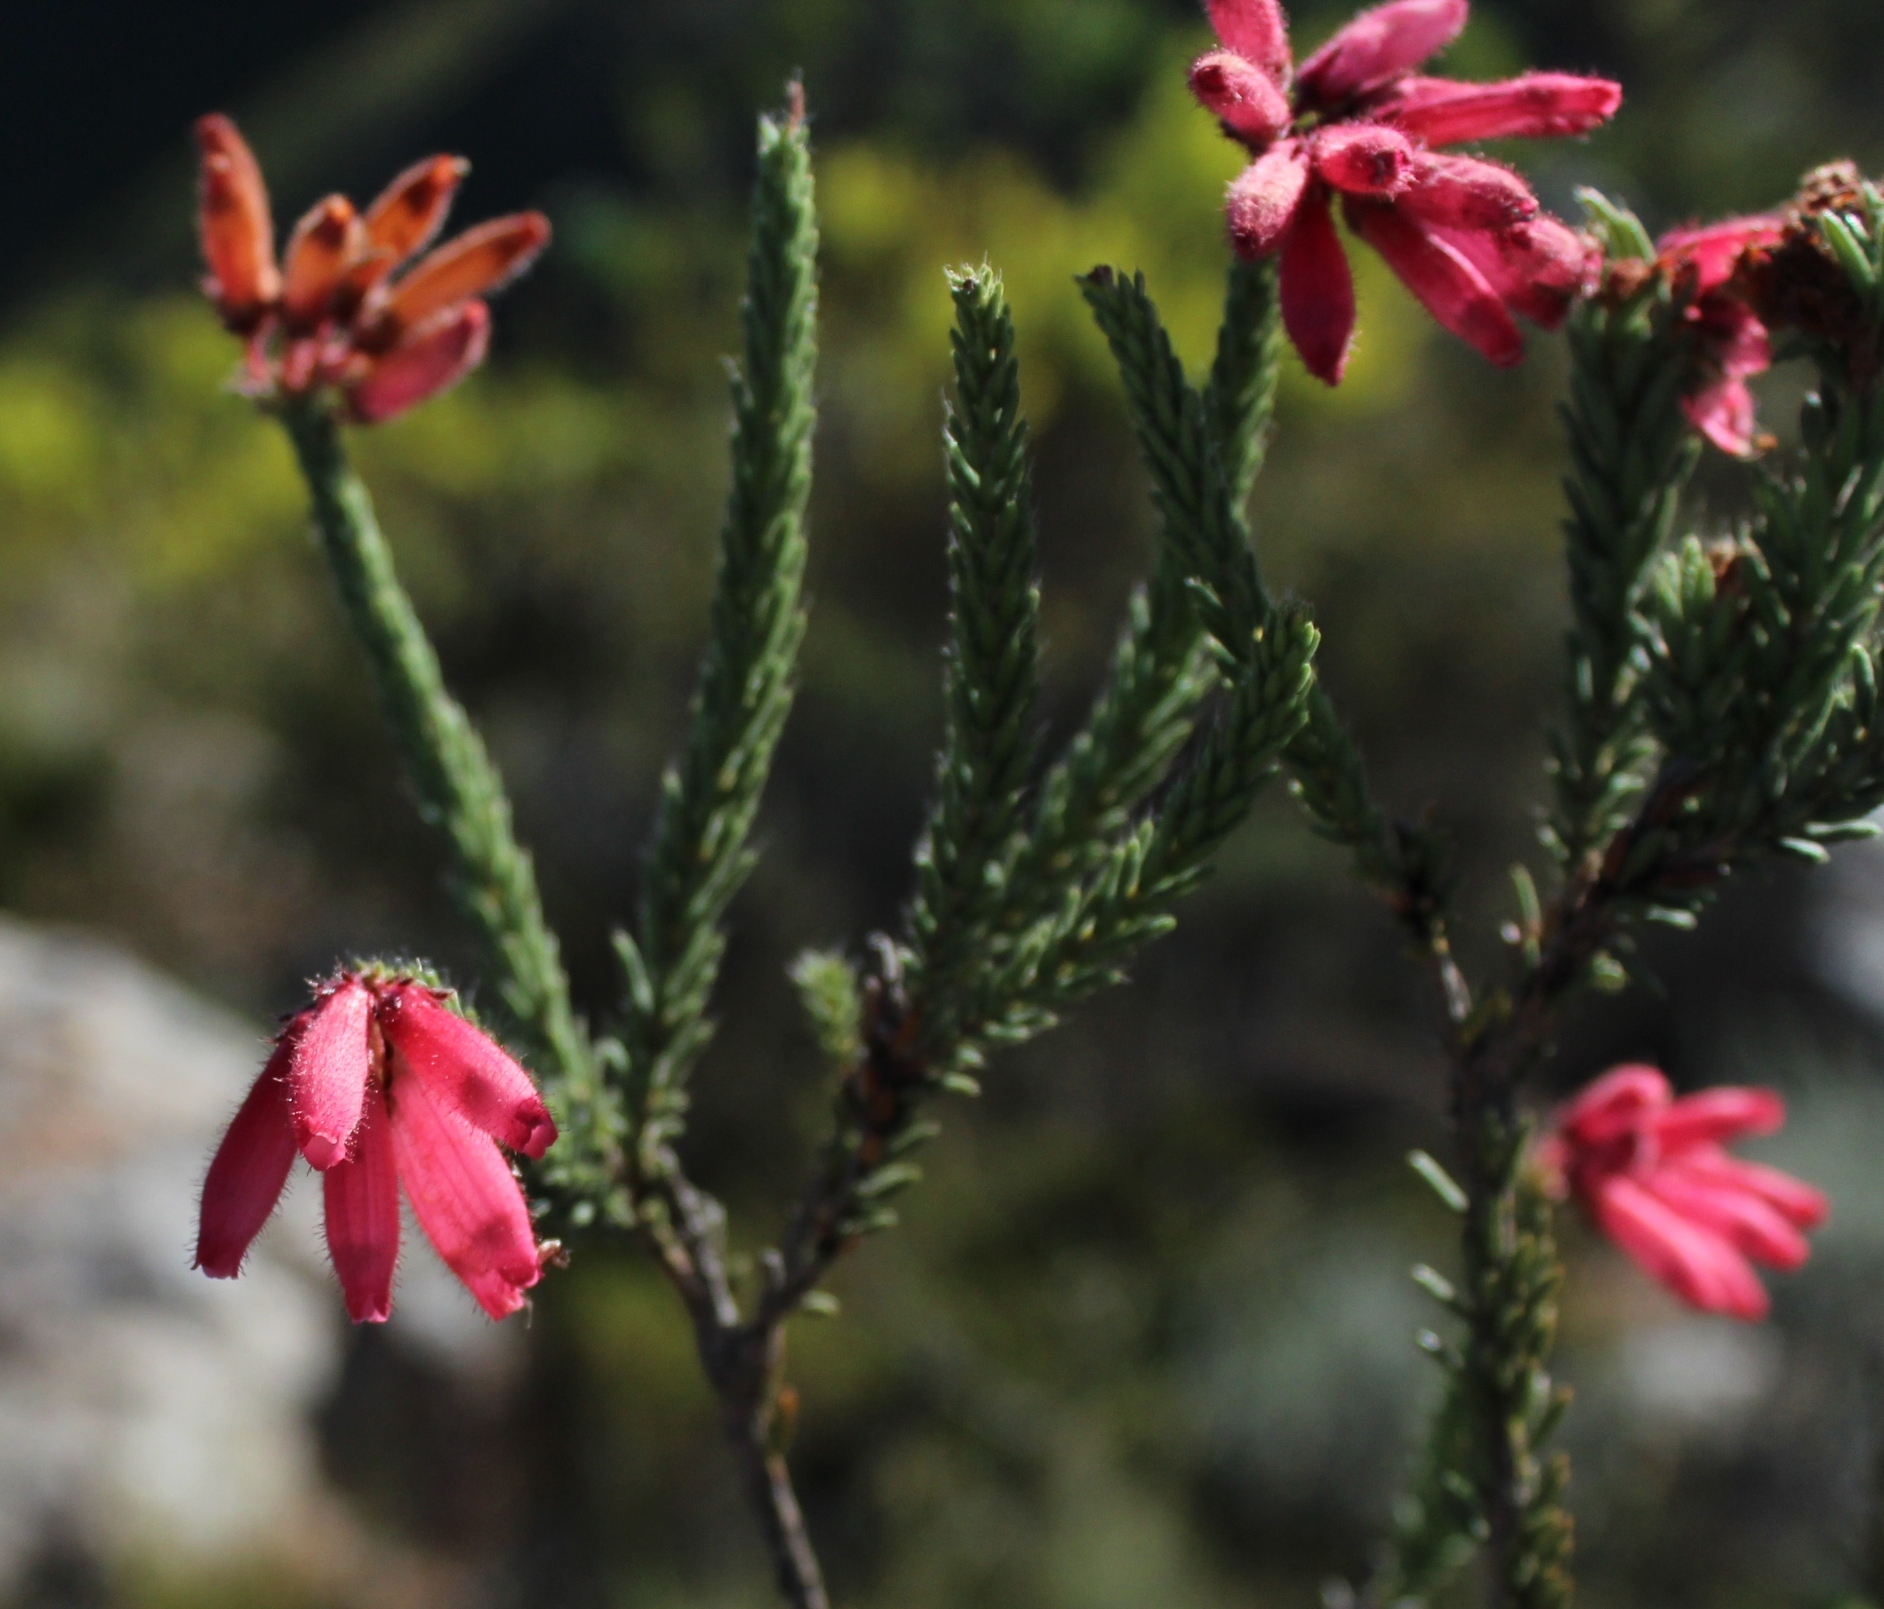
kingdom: Plantae
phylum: Tracheophyta
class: Magnoliopsida
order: Ericales
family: Ericaceae
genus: Erica
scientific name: Erica cerinthoides
